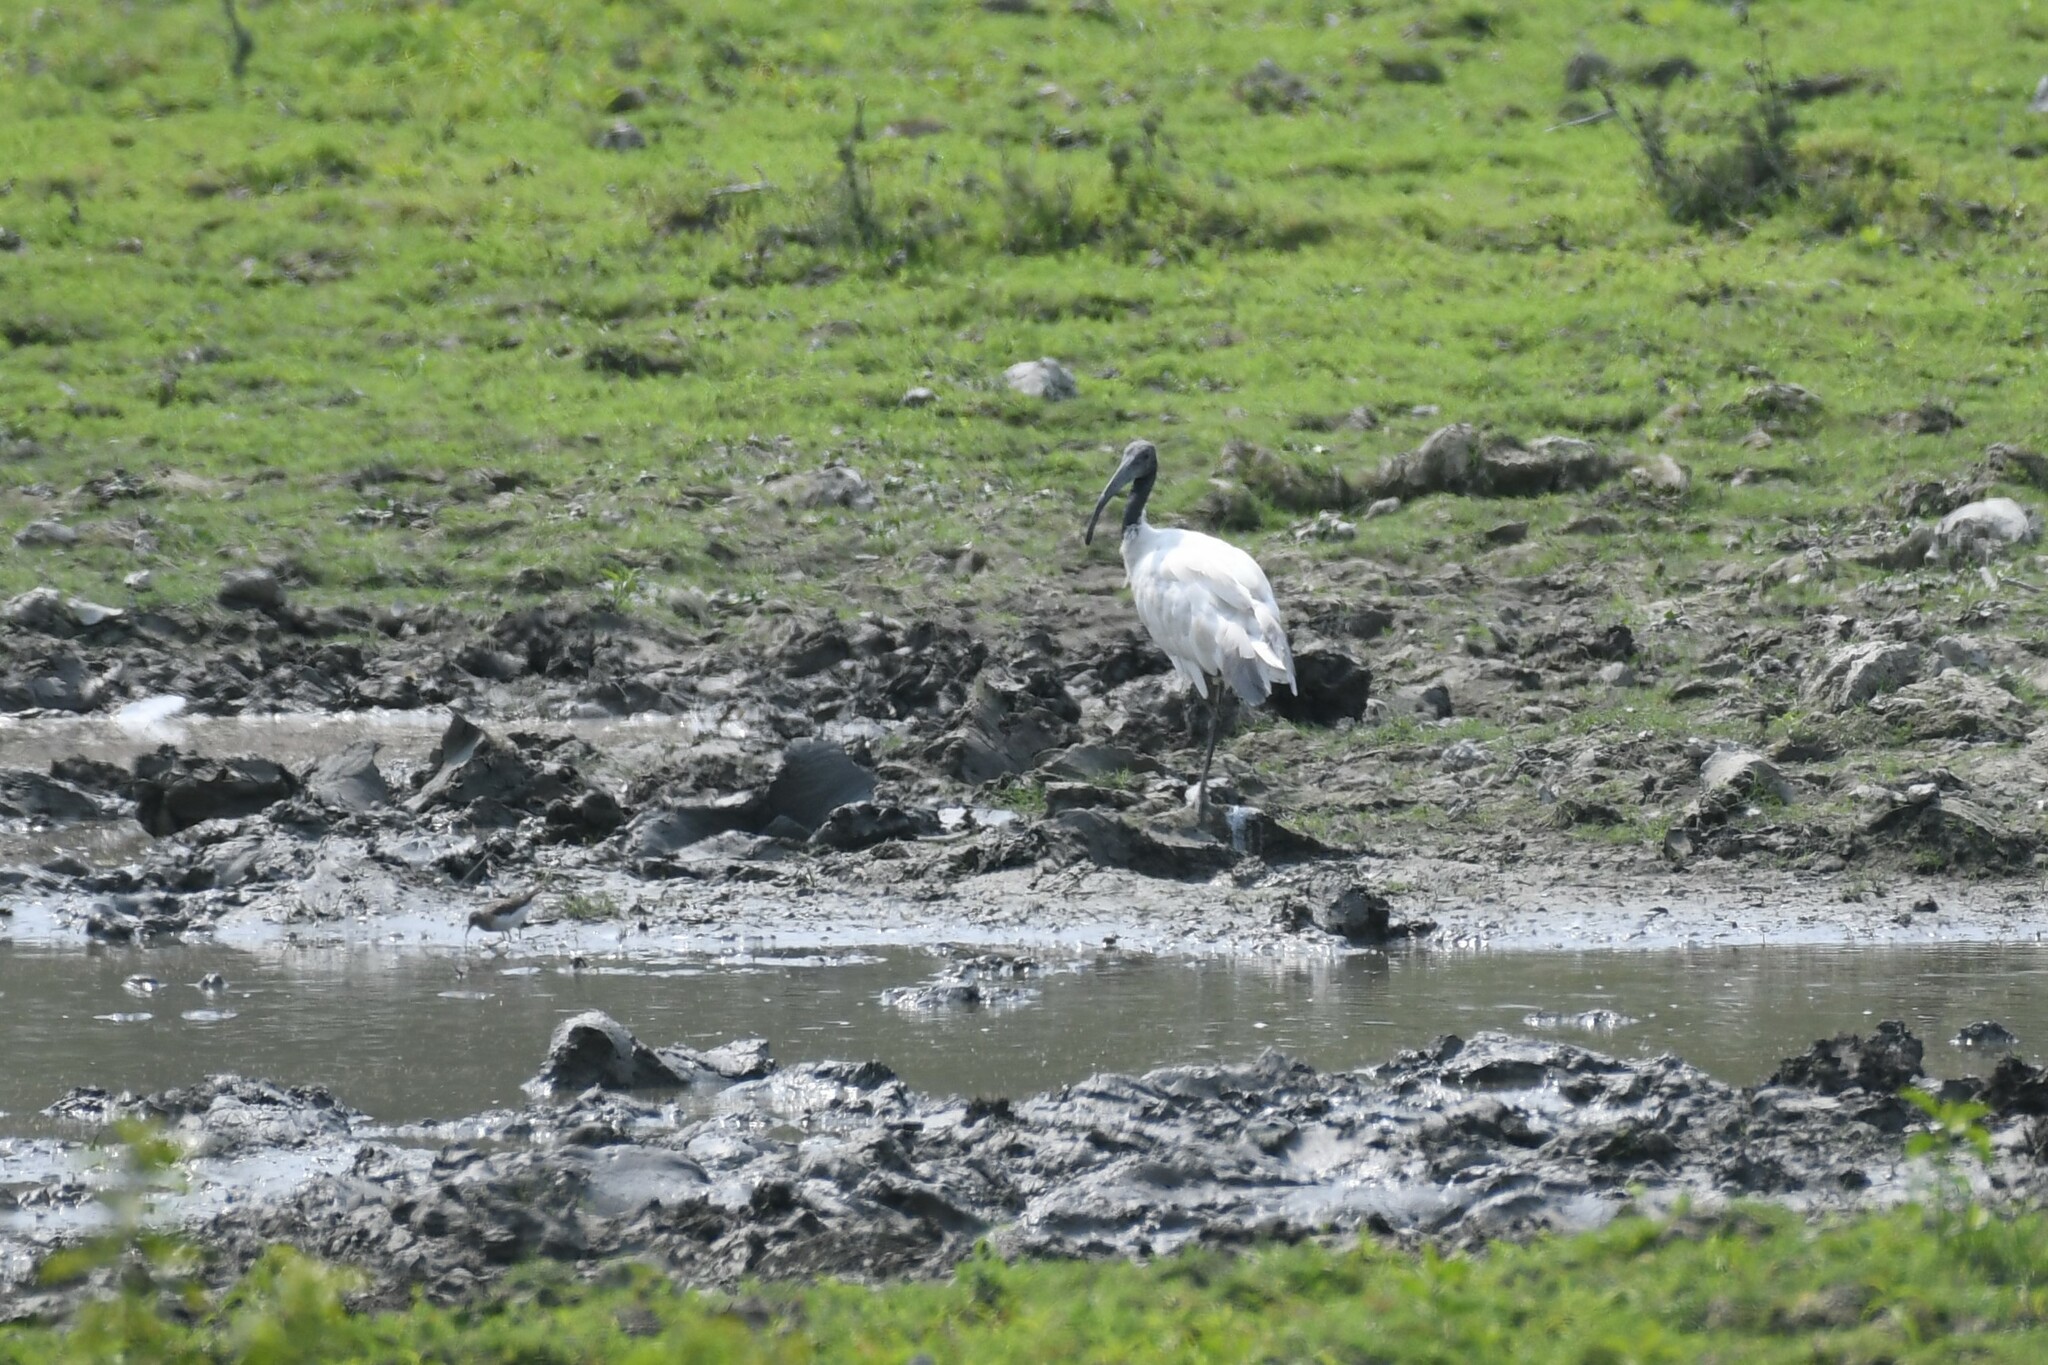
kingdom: Animalia
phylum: Chordata
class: Aves
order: Pelecaniformes
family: Threskiornithidae
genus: Threskiornis
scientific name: Threskiornis melanocephalus
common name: Black-headed ibis
